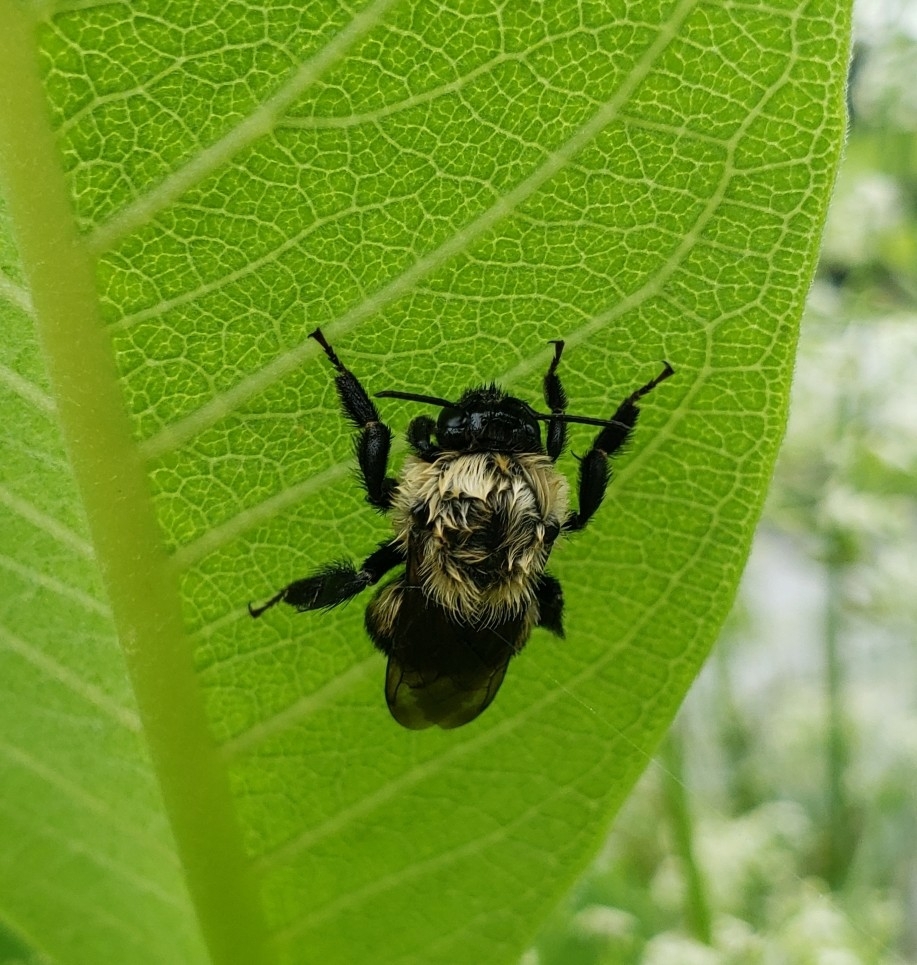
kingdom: Animalia
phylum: Arthropoda
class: Insecta
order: Hymenoptera
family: Apidae
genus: Bombus
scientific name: Bombus griseocollis
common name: Brown-belted bumble bee
